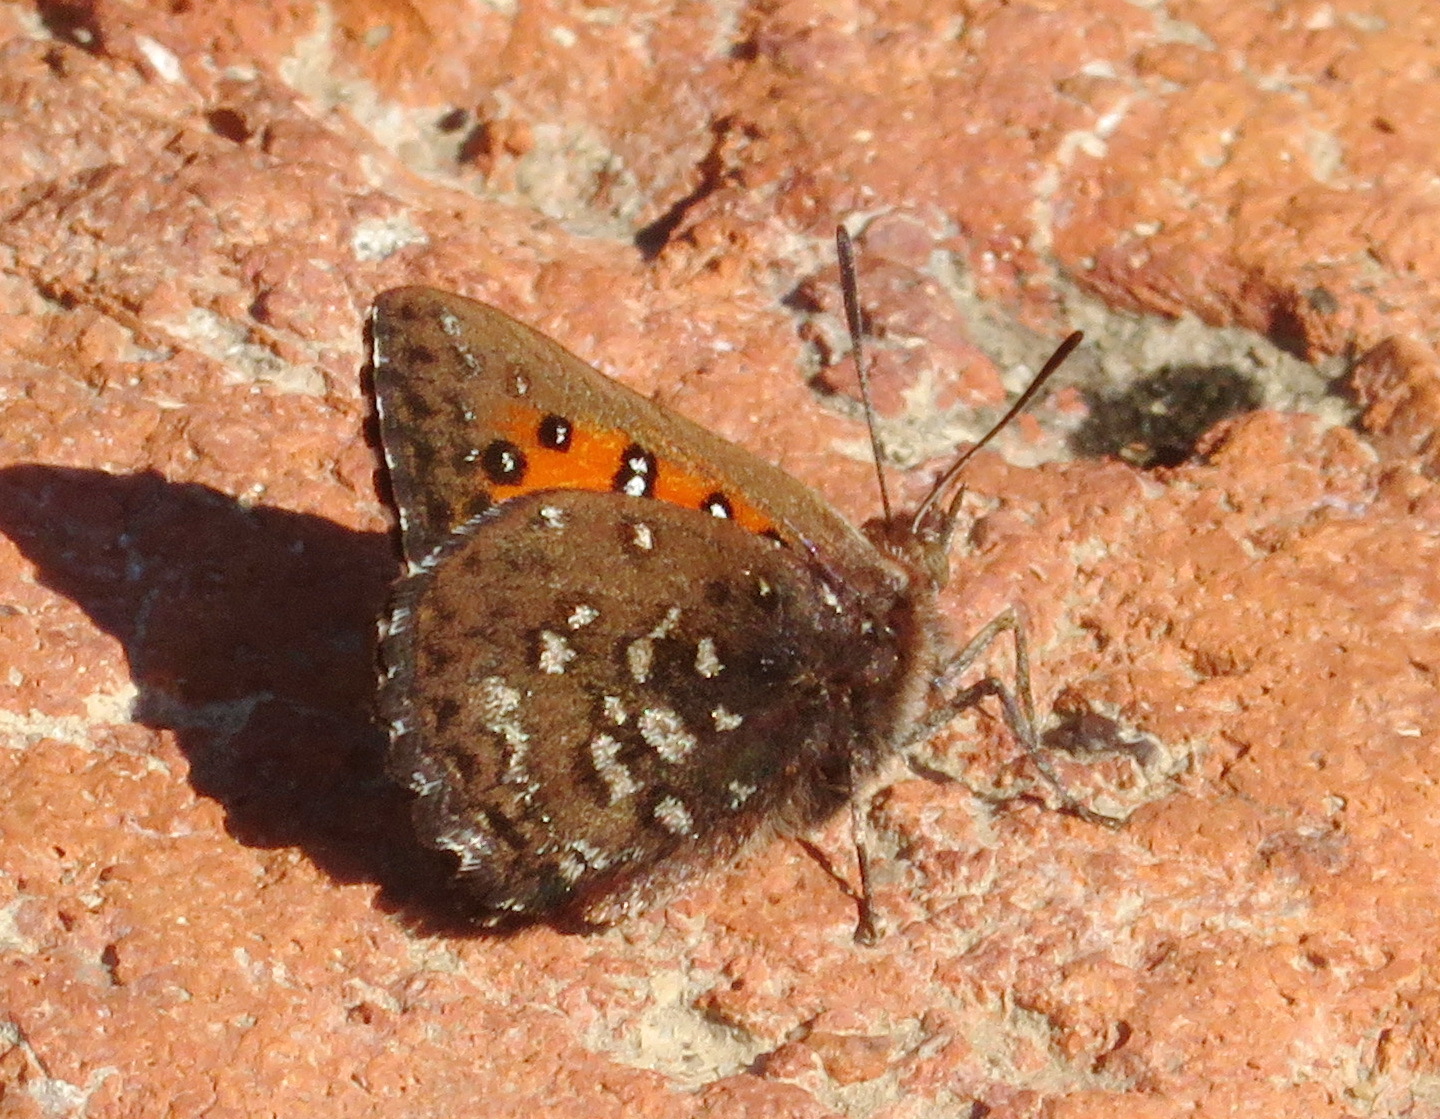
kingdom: Animalia
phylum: Arthropoda
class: Insecta
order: Lepidoptera
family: Lycaenidae
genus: Aloeides
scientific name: Aloeides thyra
